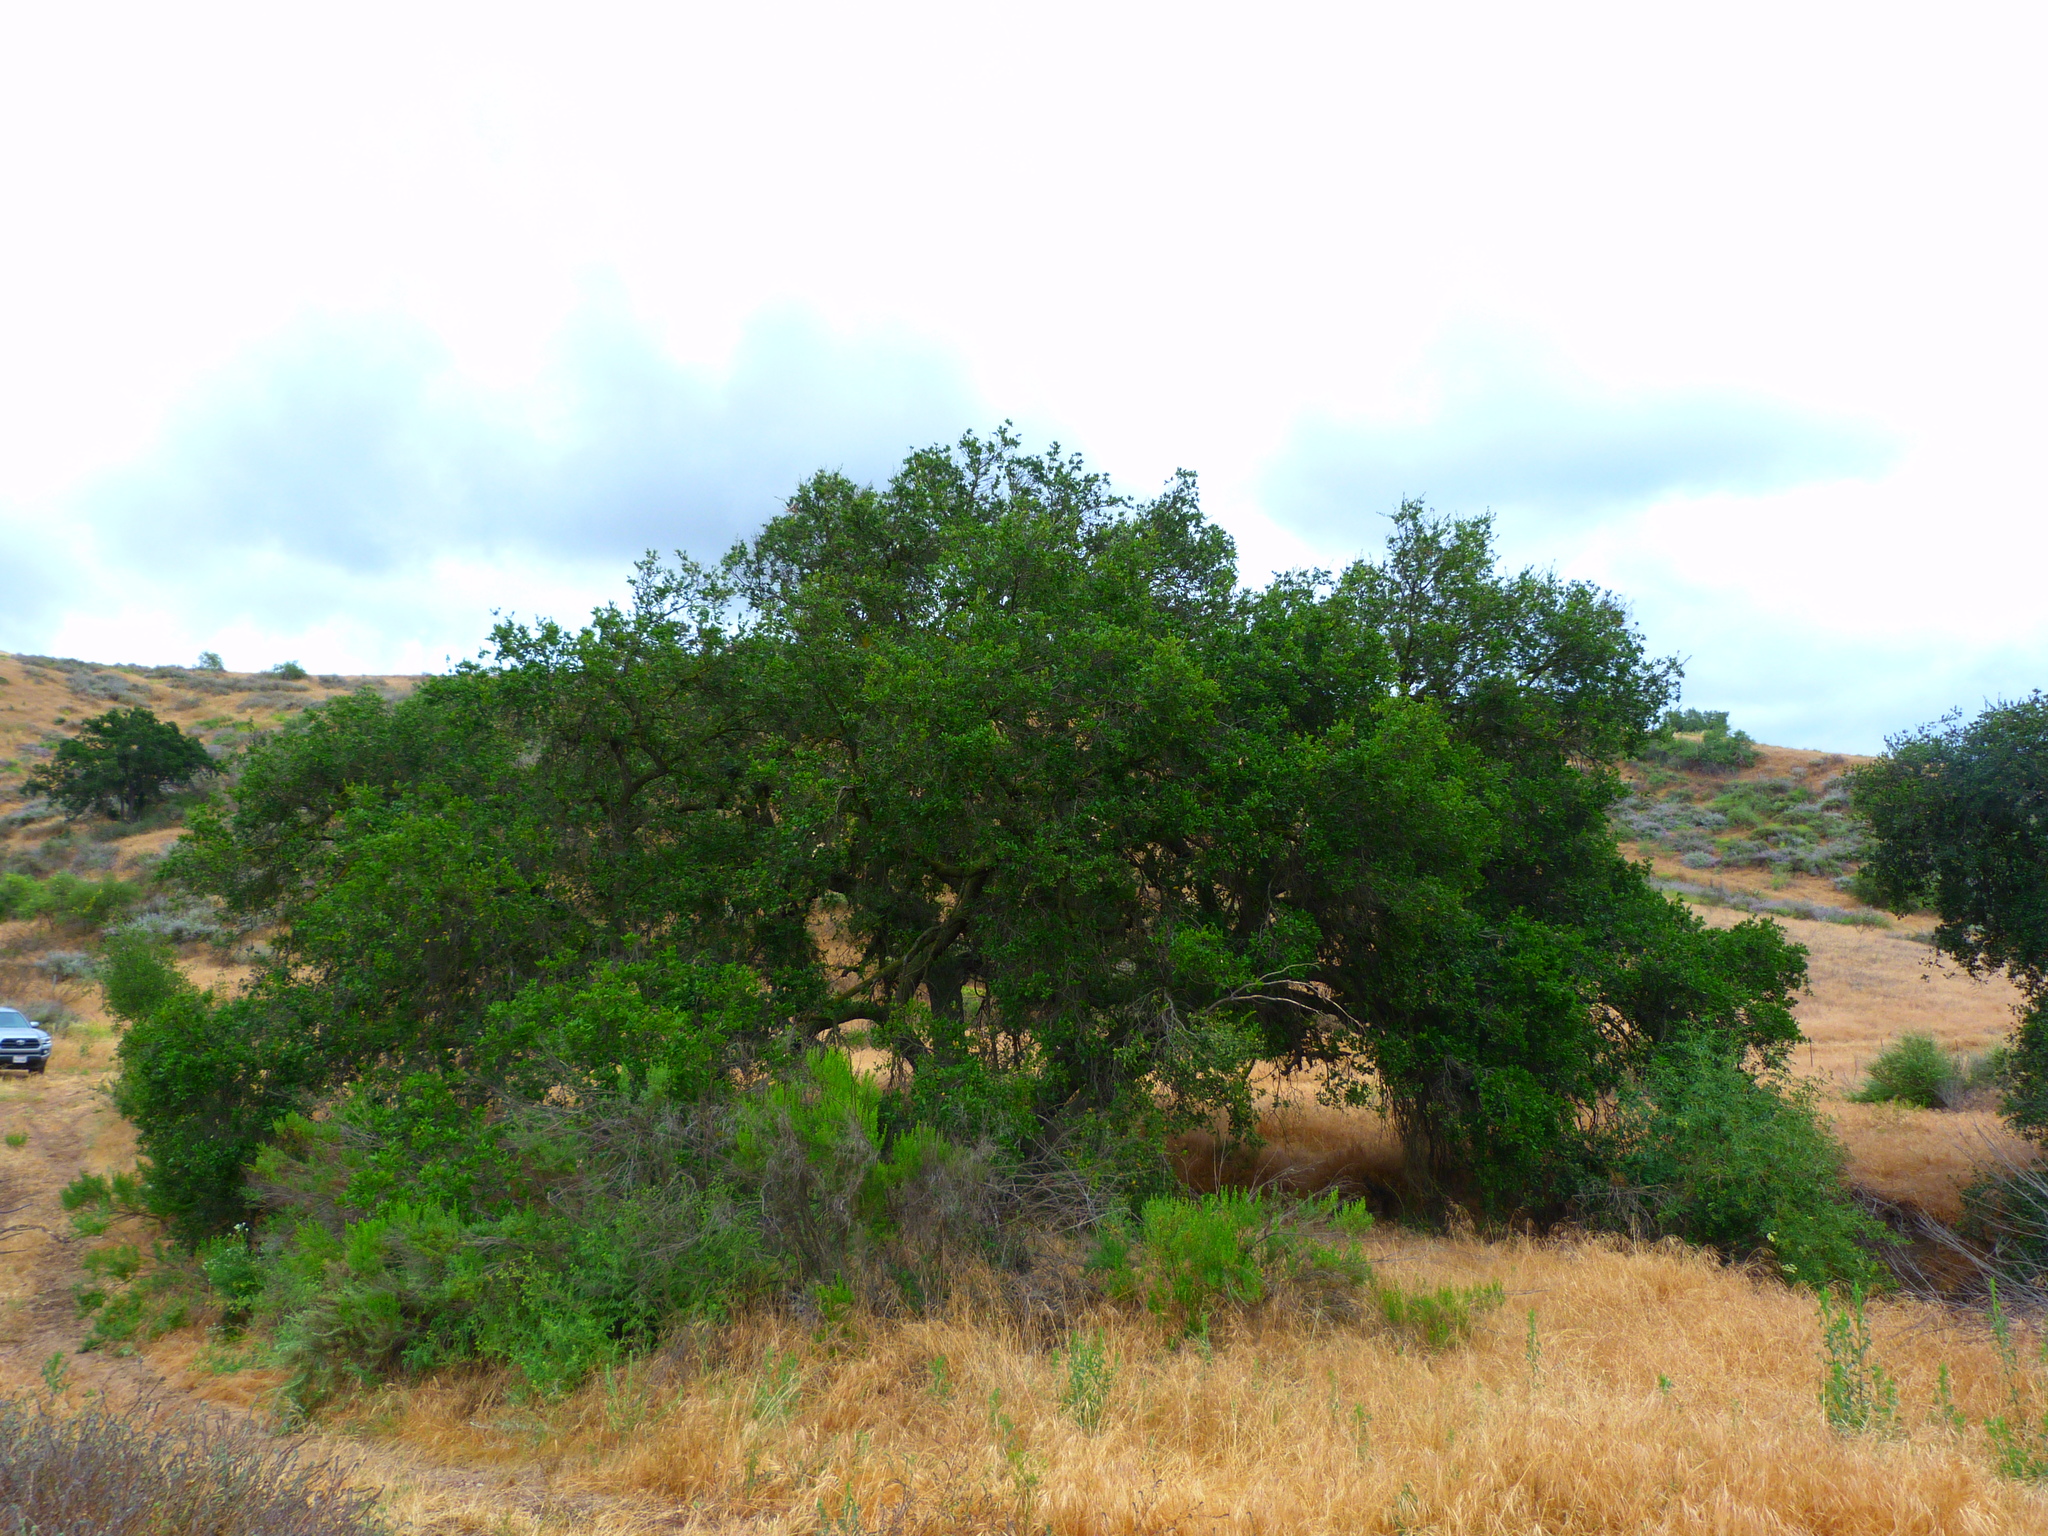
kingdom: Plantae
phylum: Tracheophyta
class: Magnoliopsida
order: Fagales
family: Fagaceae
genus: Quercus
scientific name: Quercus agrifolia
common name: California live oak
